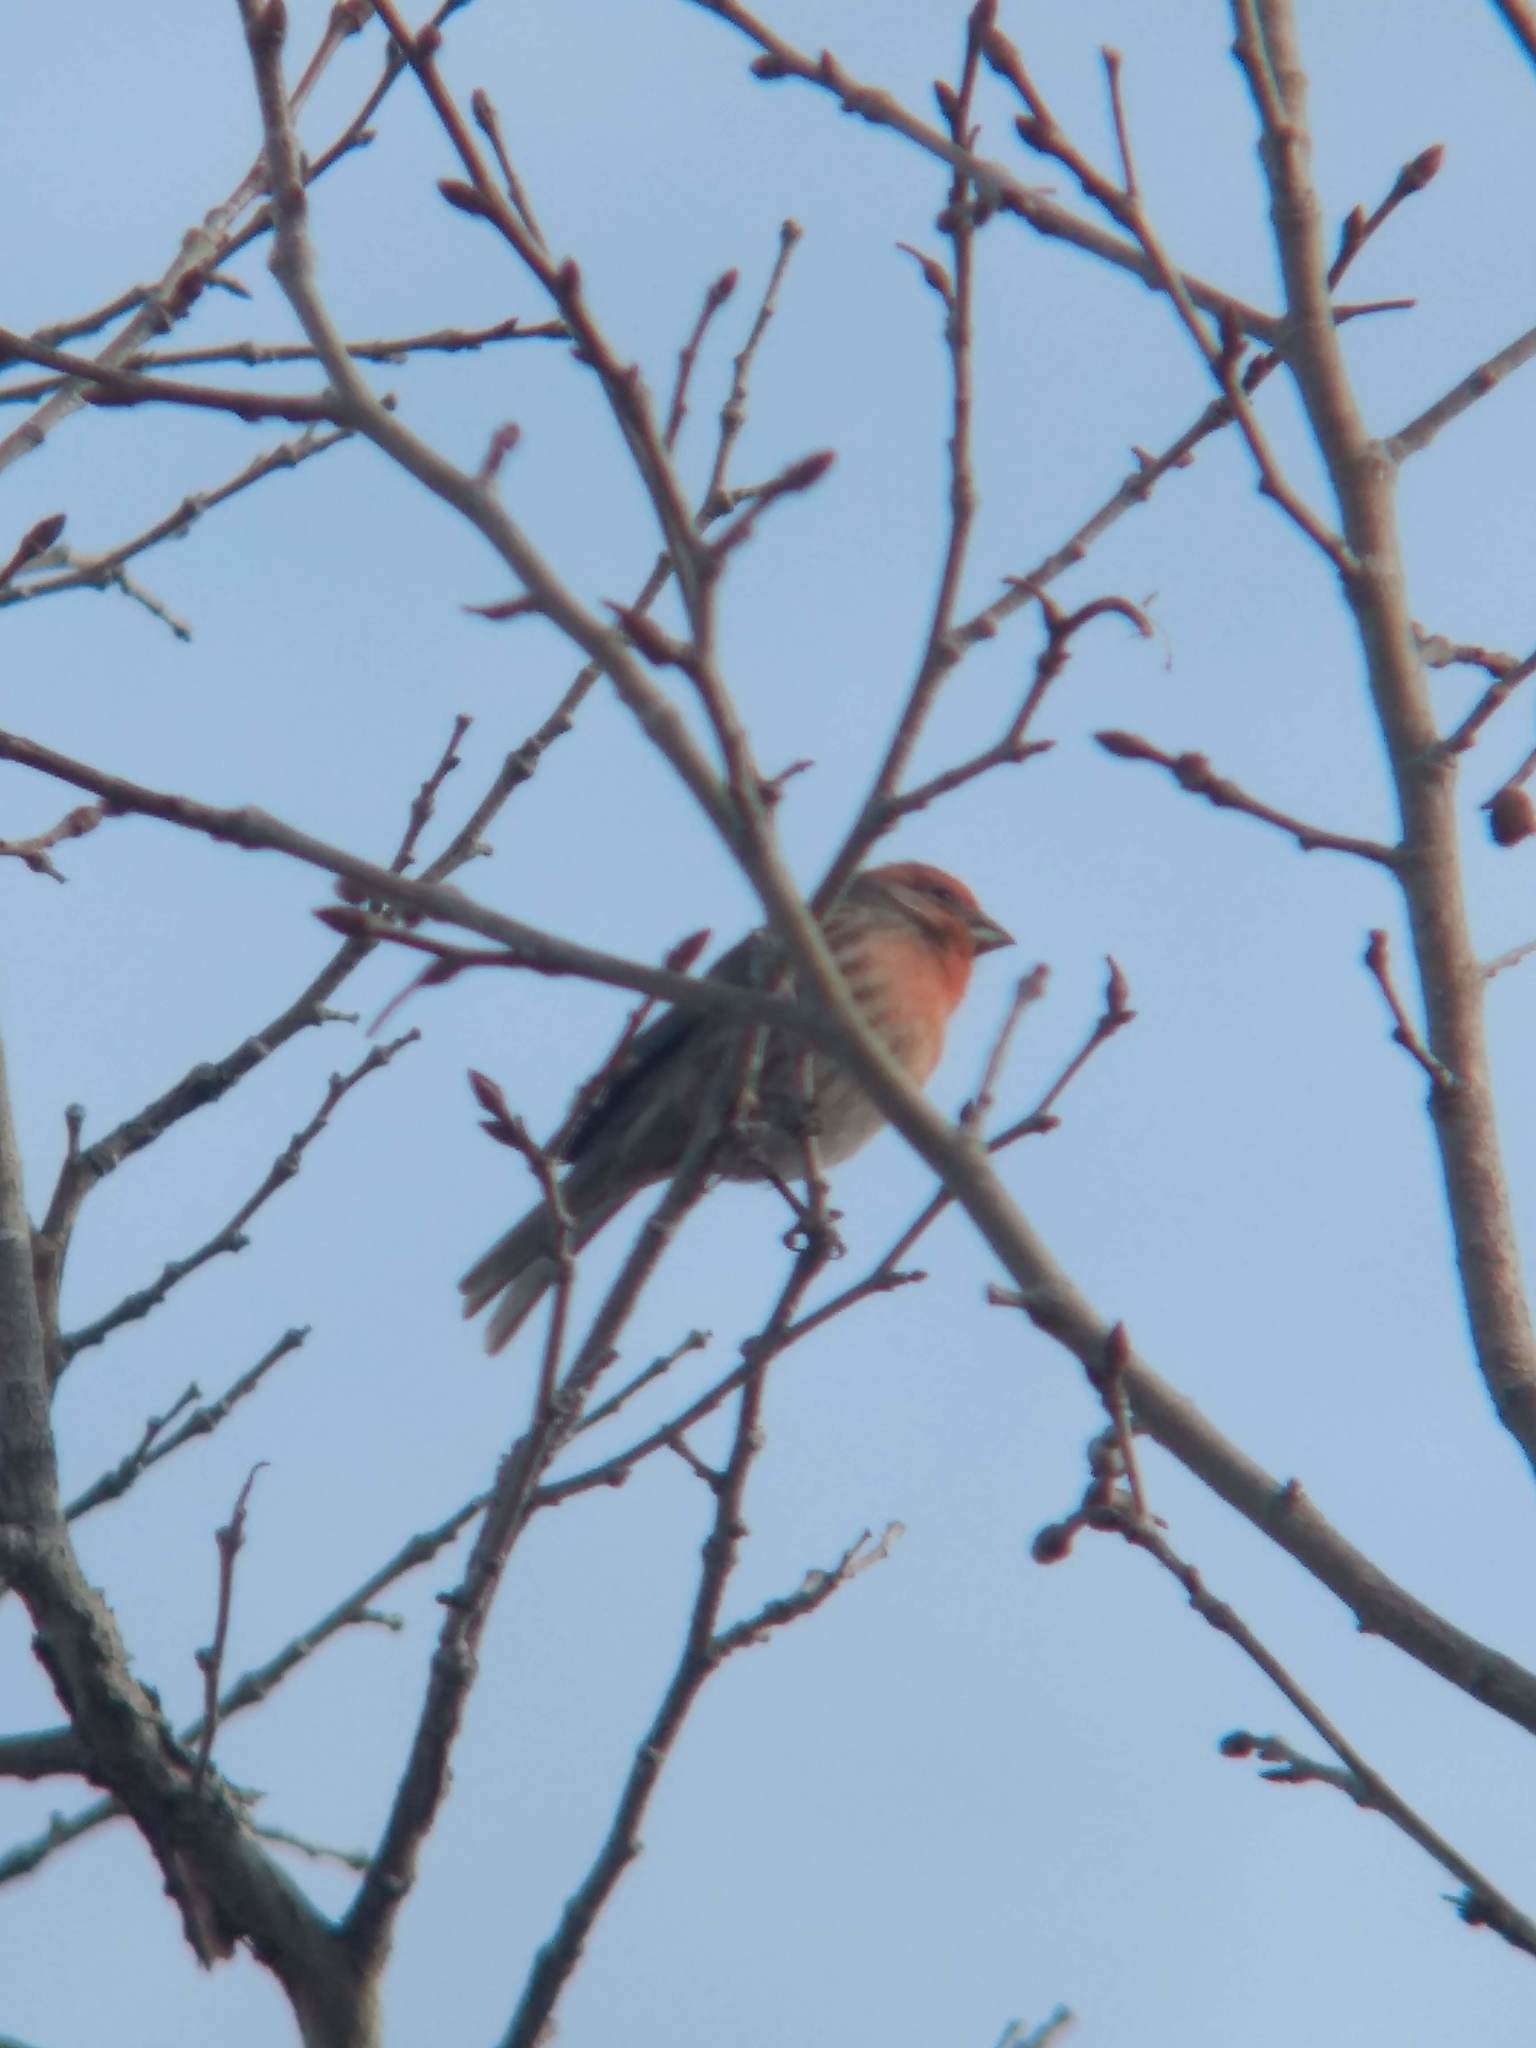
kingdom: Animalia
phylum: Chordata
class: Aves
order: Passeriformes
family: Fringillidae
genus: Haemorhous
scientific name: Haemorhous mexicanus
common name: House finch
